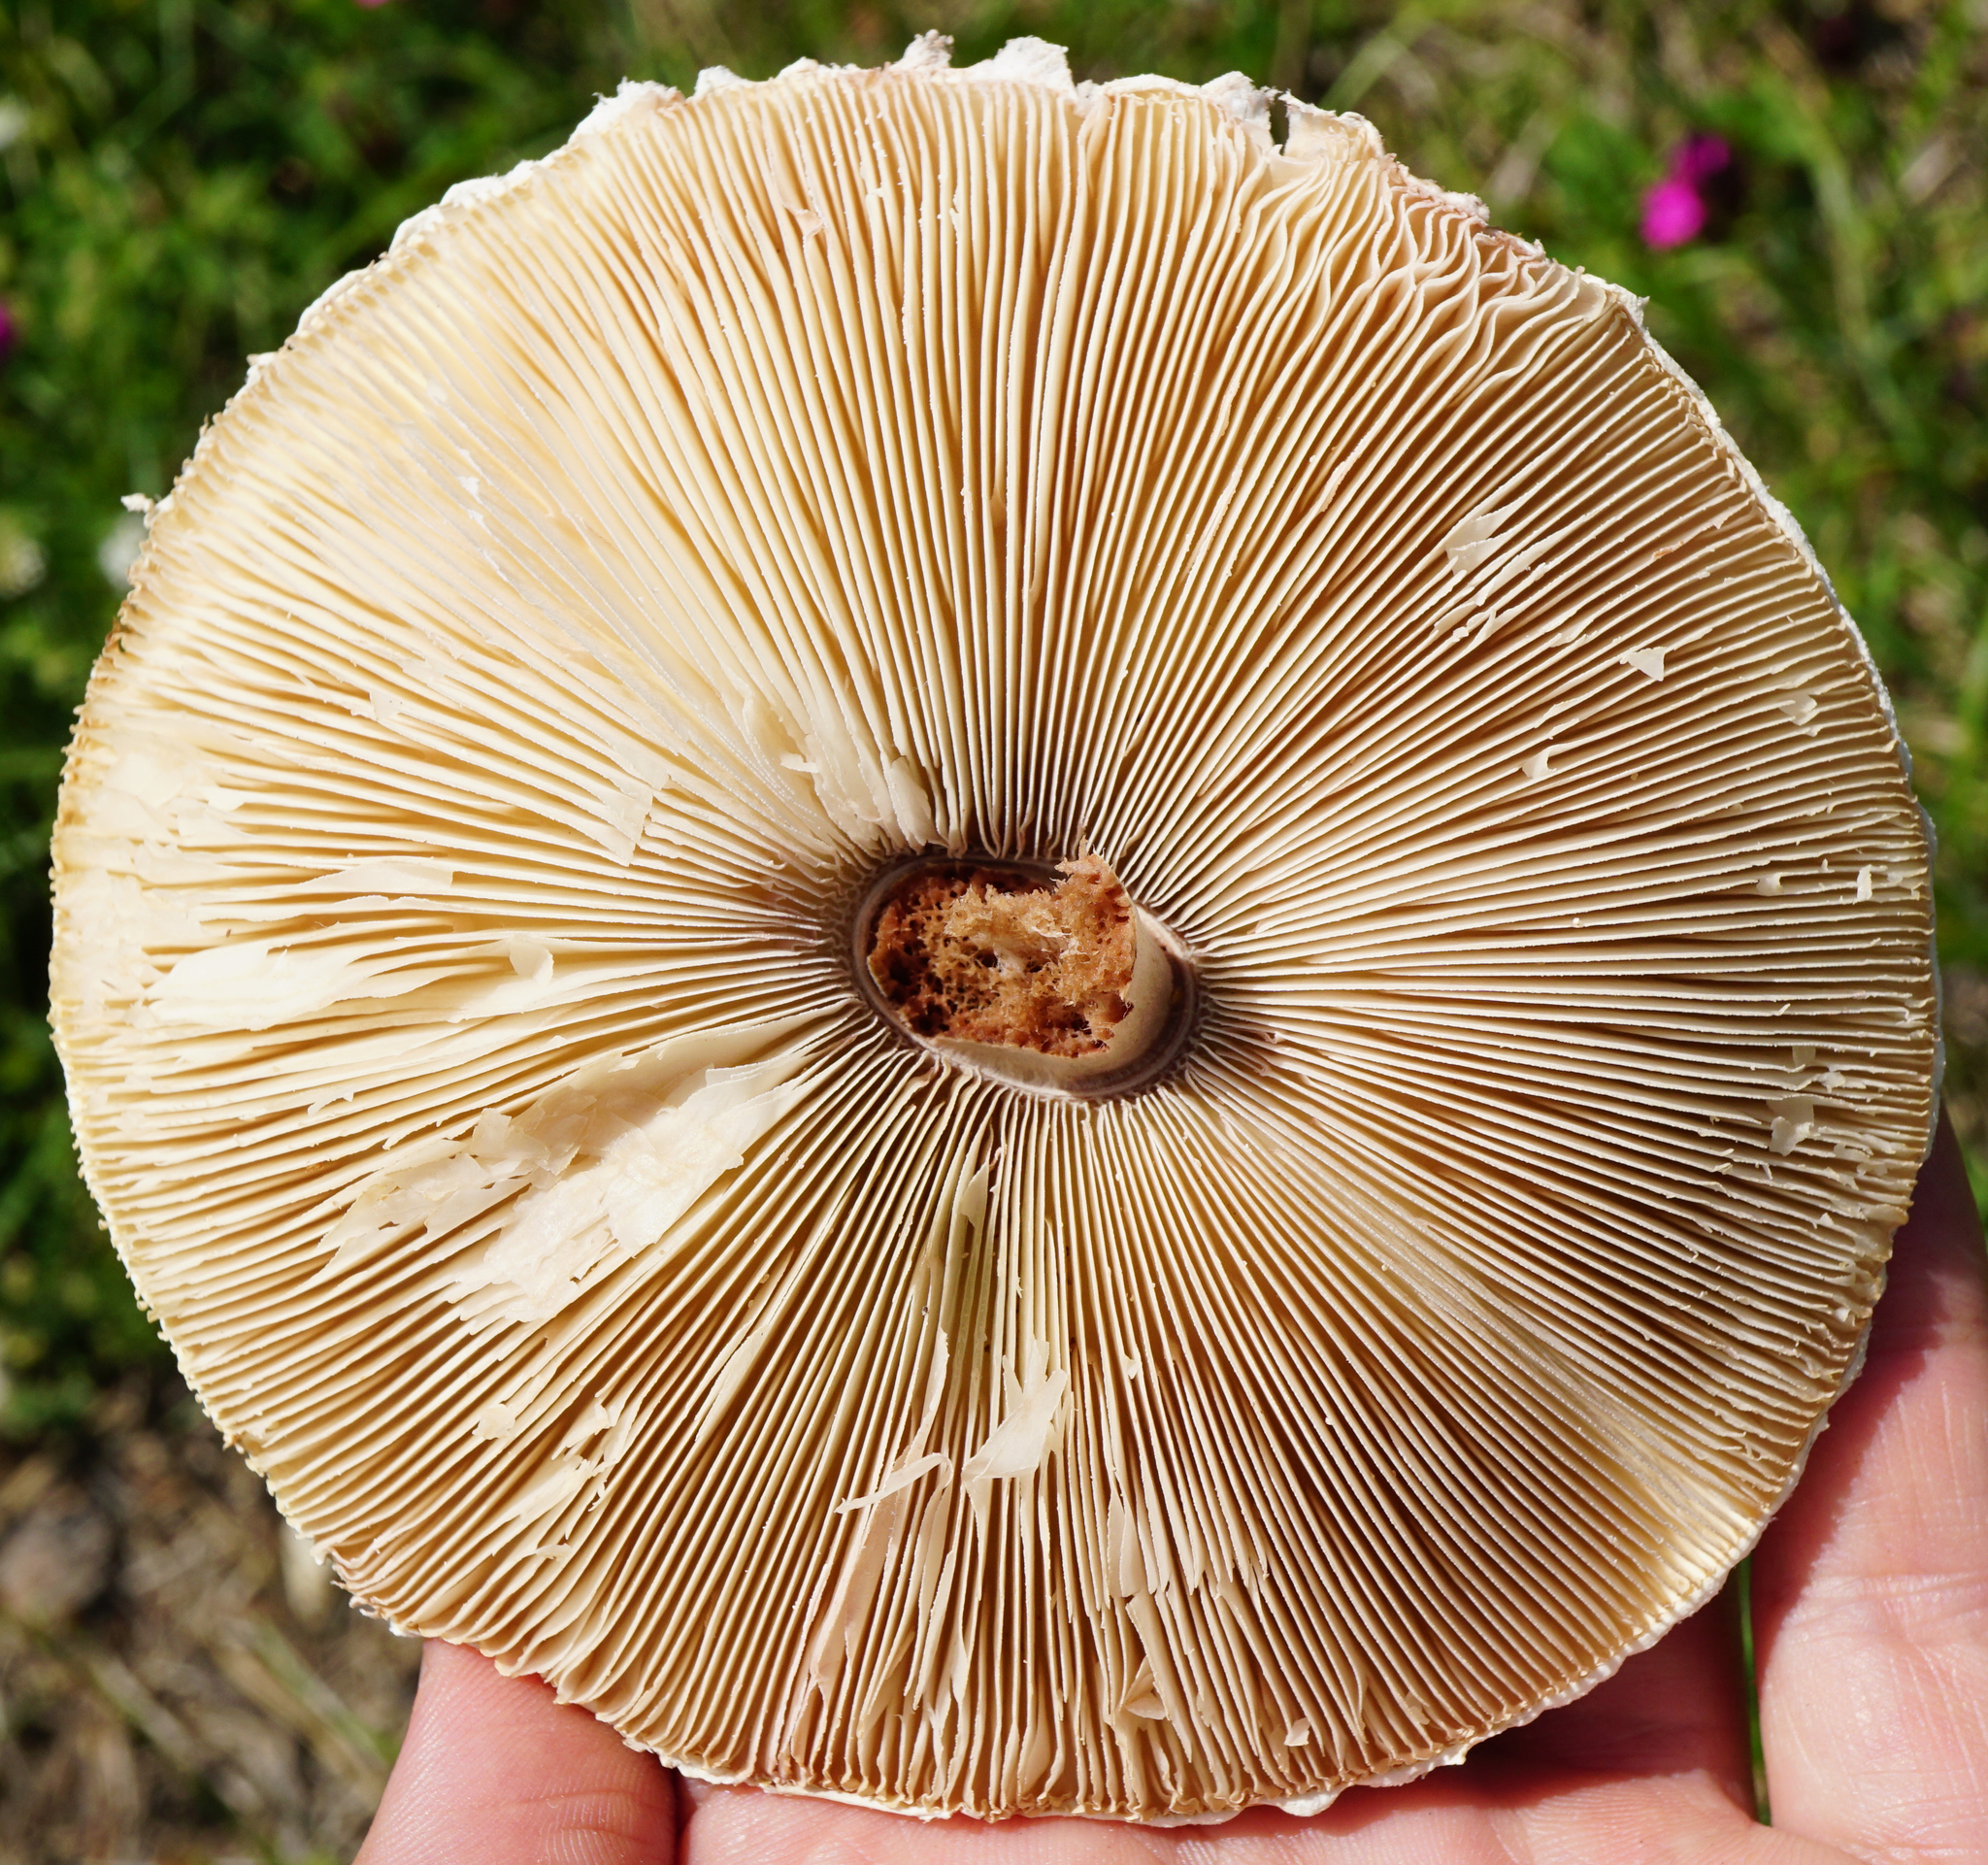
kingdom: Fungi
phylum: Basidiomycota
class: Agaricomycetes
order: Agaricales
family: Agaricaceae
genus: Leucoagaricus
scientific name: Leucoagaricus leucothites
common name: White dapperling
